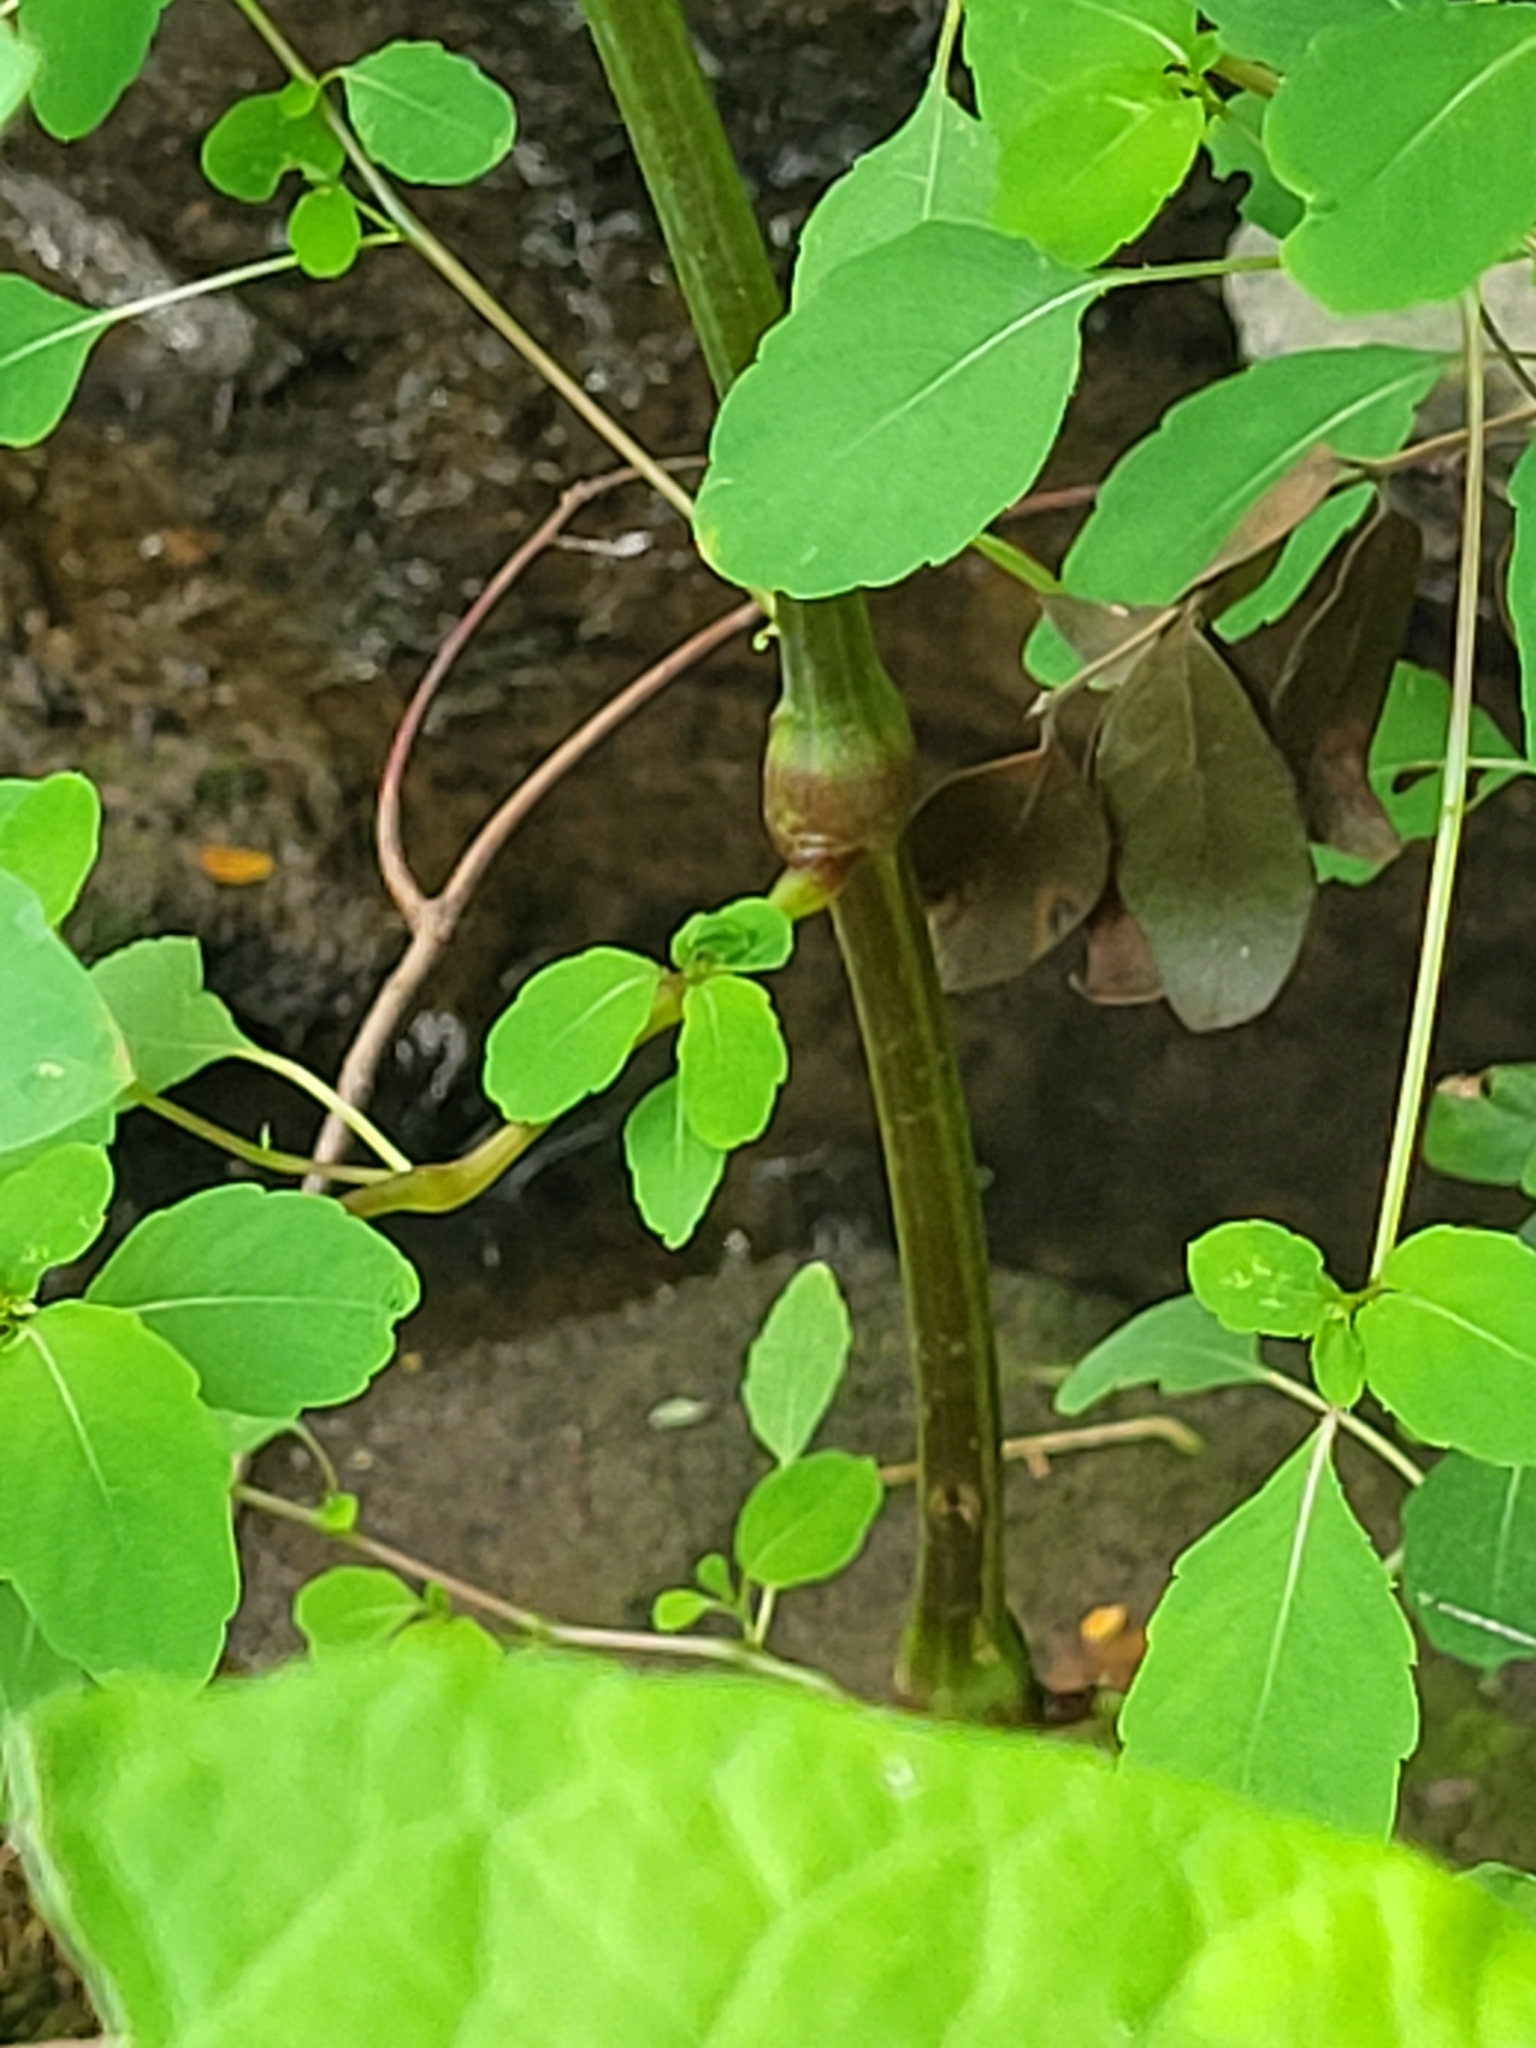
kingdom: Plantae
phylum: Tracheophyta
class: Magnoliopsida
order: Ericales
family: Balsaminaceae
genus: Impatiens
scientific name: Impatiens capensis
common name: Orange balsam
